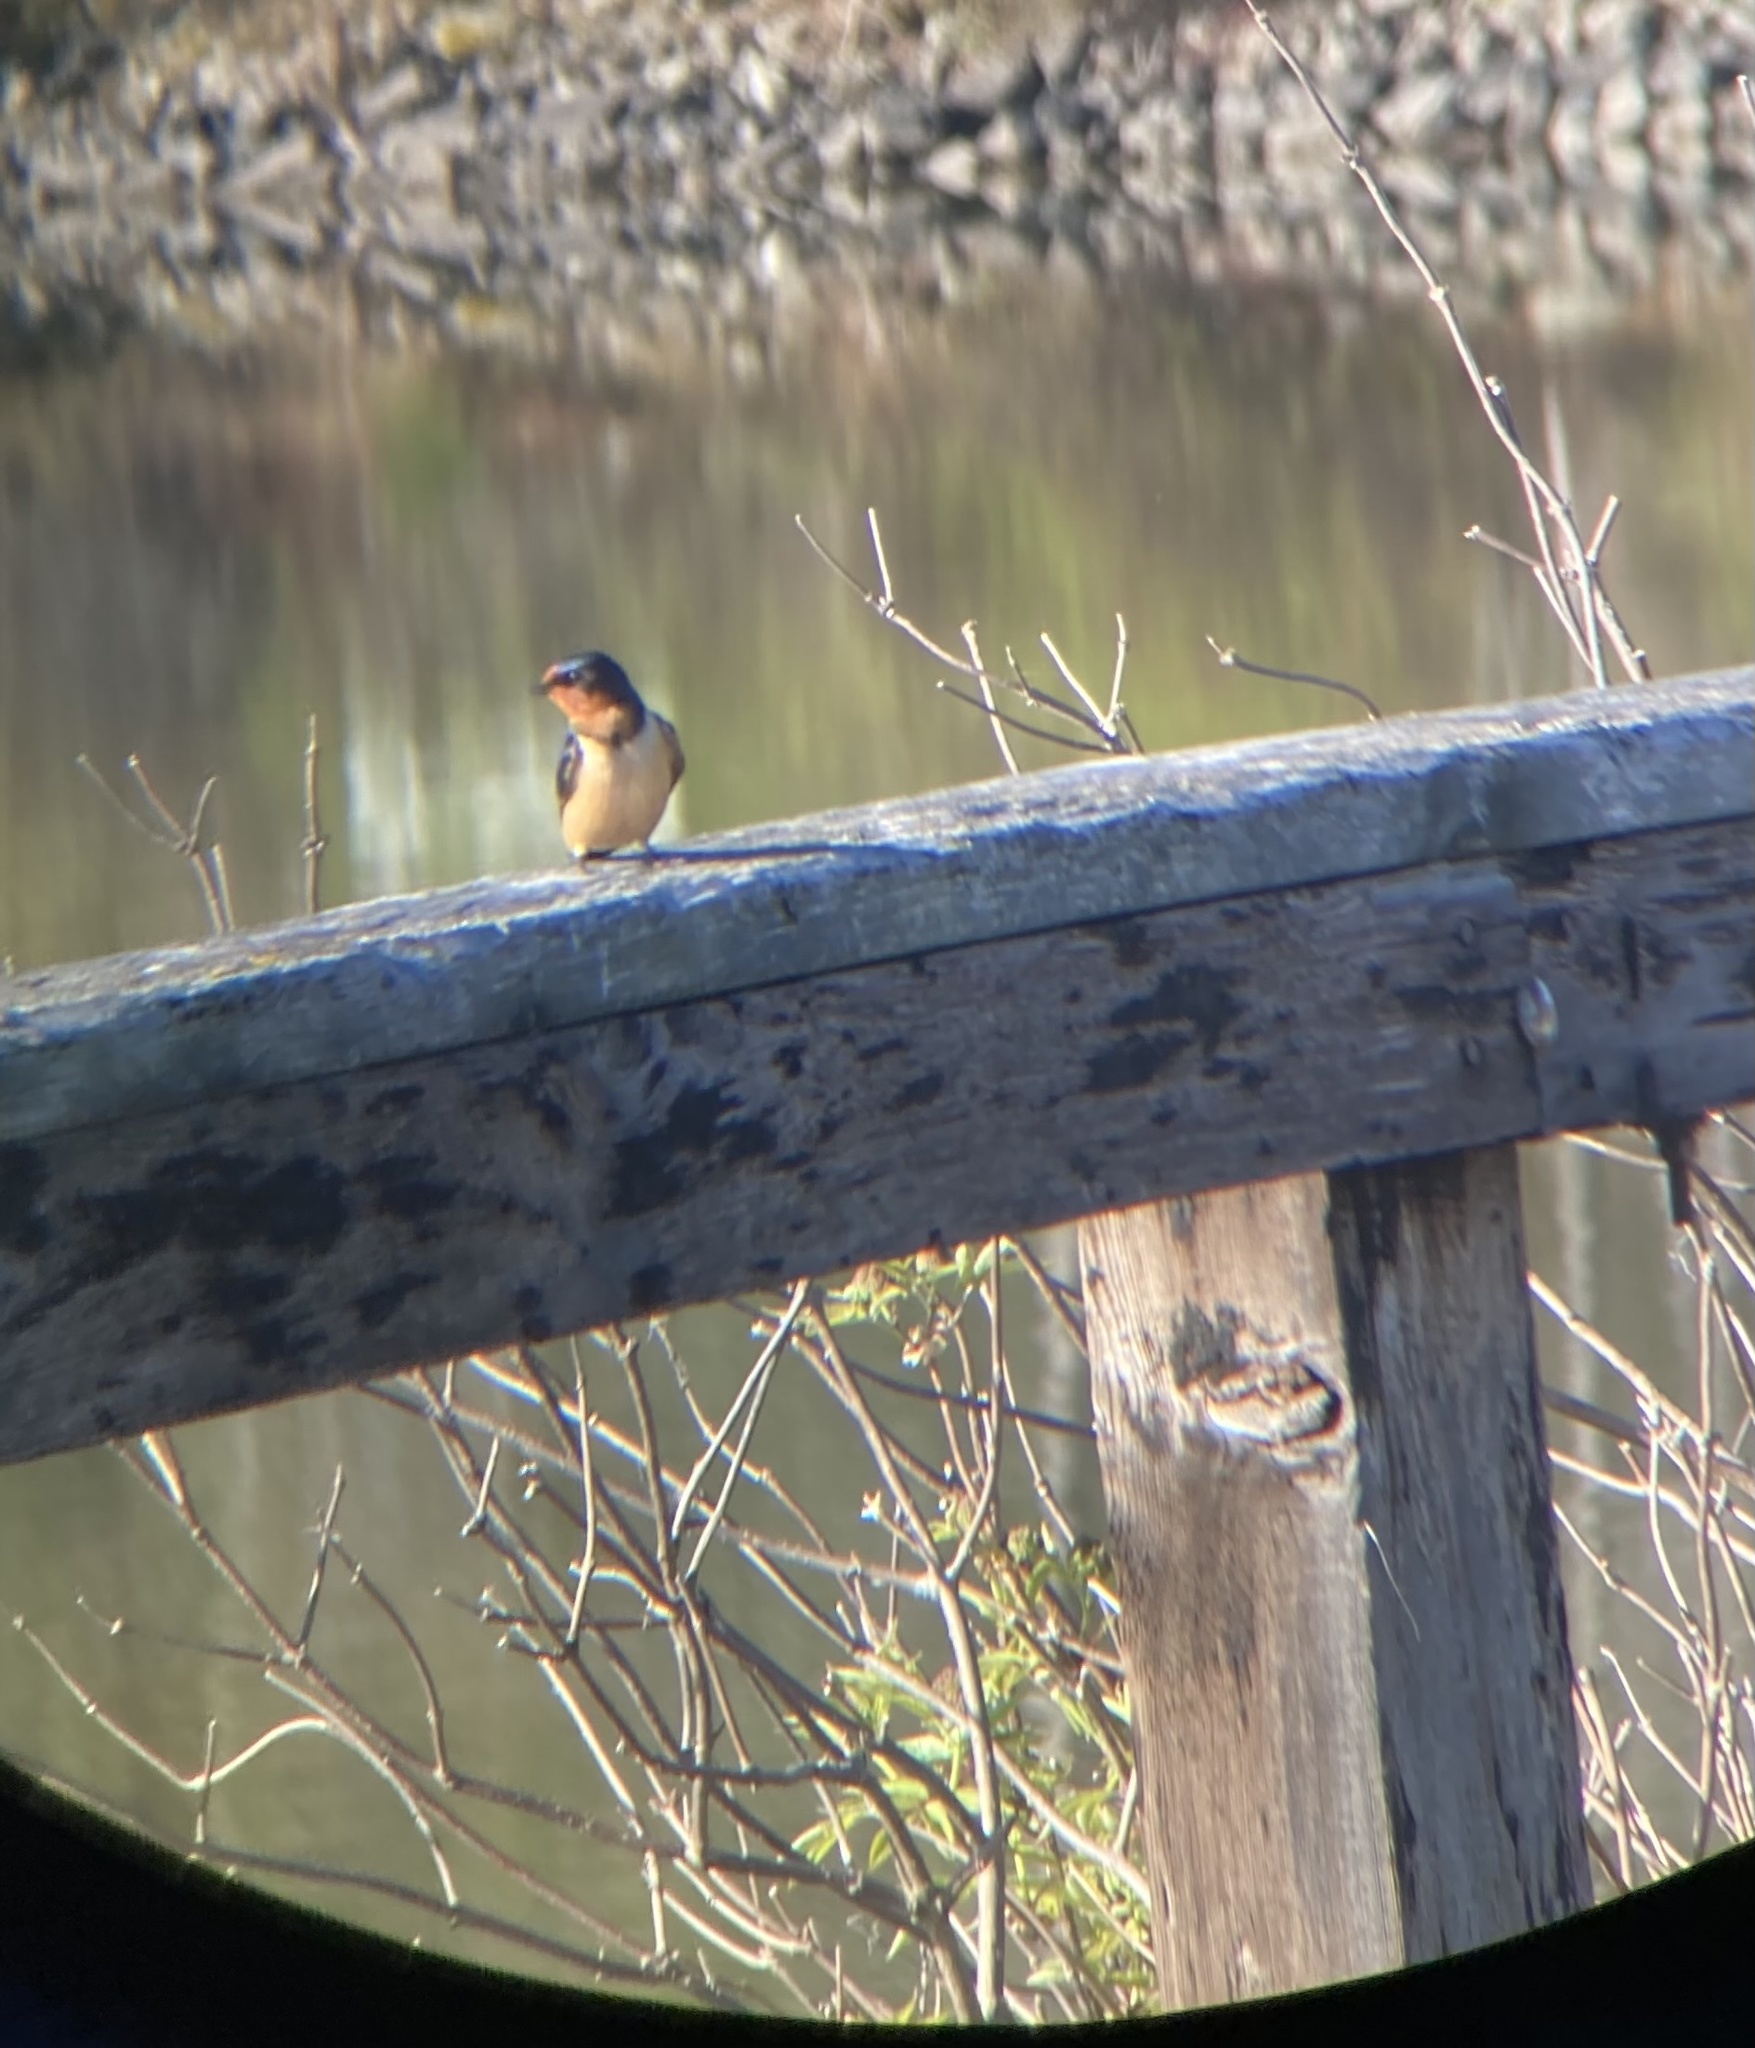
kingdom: Animalia
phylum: Chordata
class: Aves
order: Passeriformes
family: Hirundinidae
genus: Hirundo
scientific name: Hirundo rustica
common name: Barn swallow
